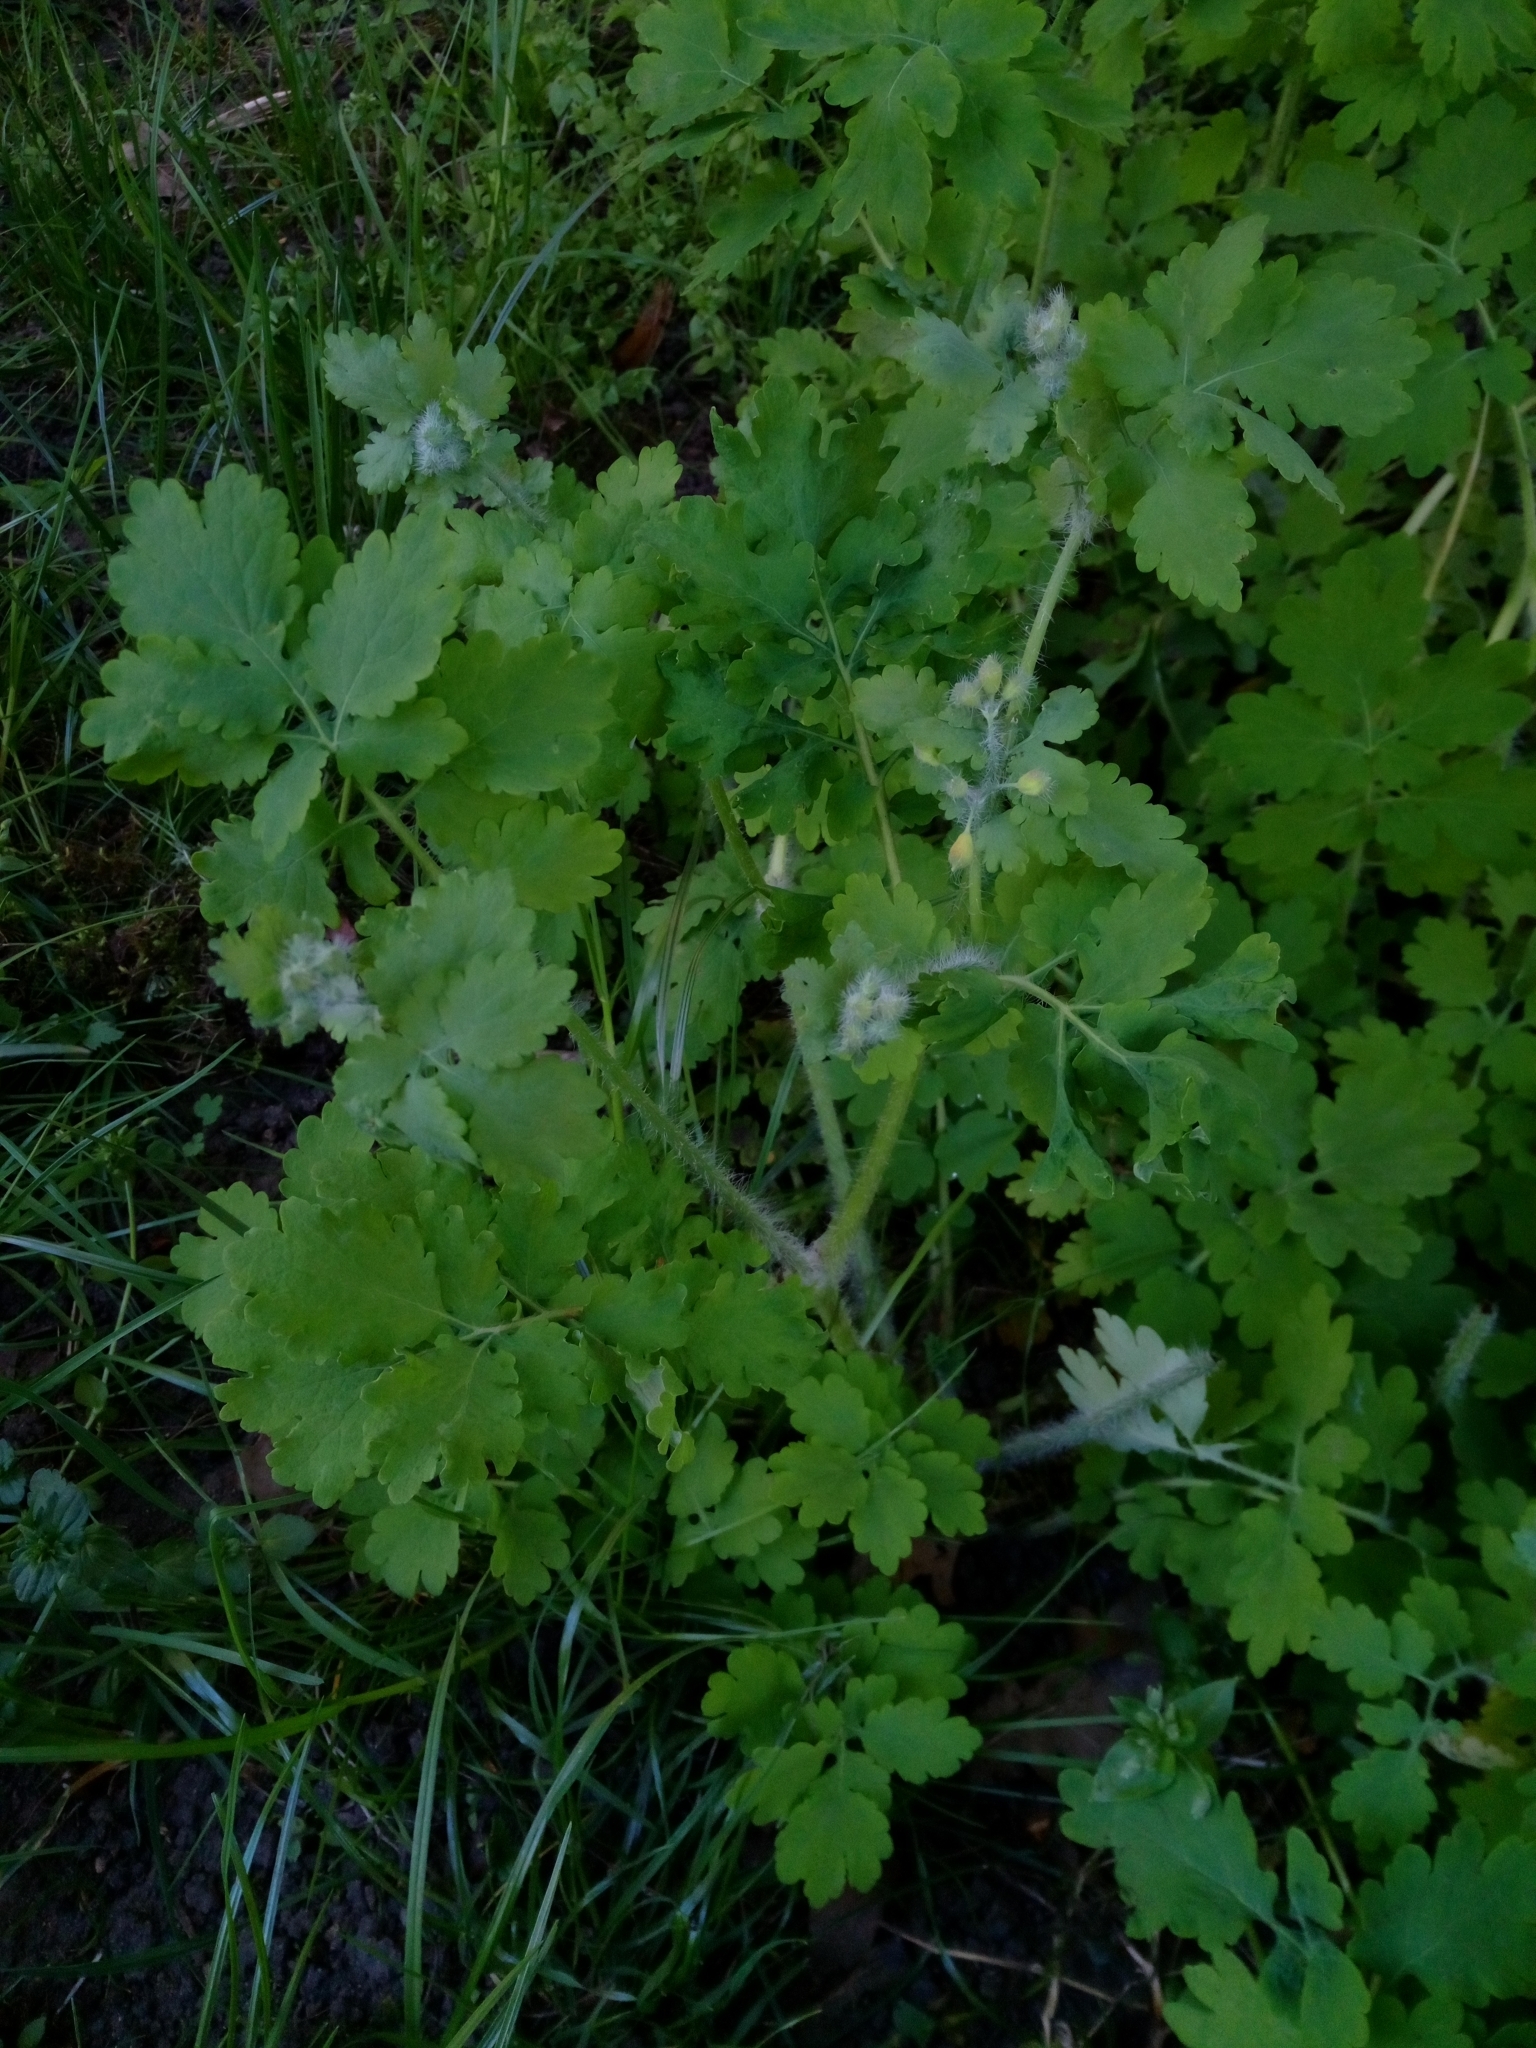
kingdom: Plantae
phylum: Tracheophyta
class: Magnoliopsida
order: Ranunculales
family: Papaveraceae
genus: Chelidonium
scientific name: Chelidonium majus
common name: Greater celandine
